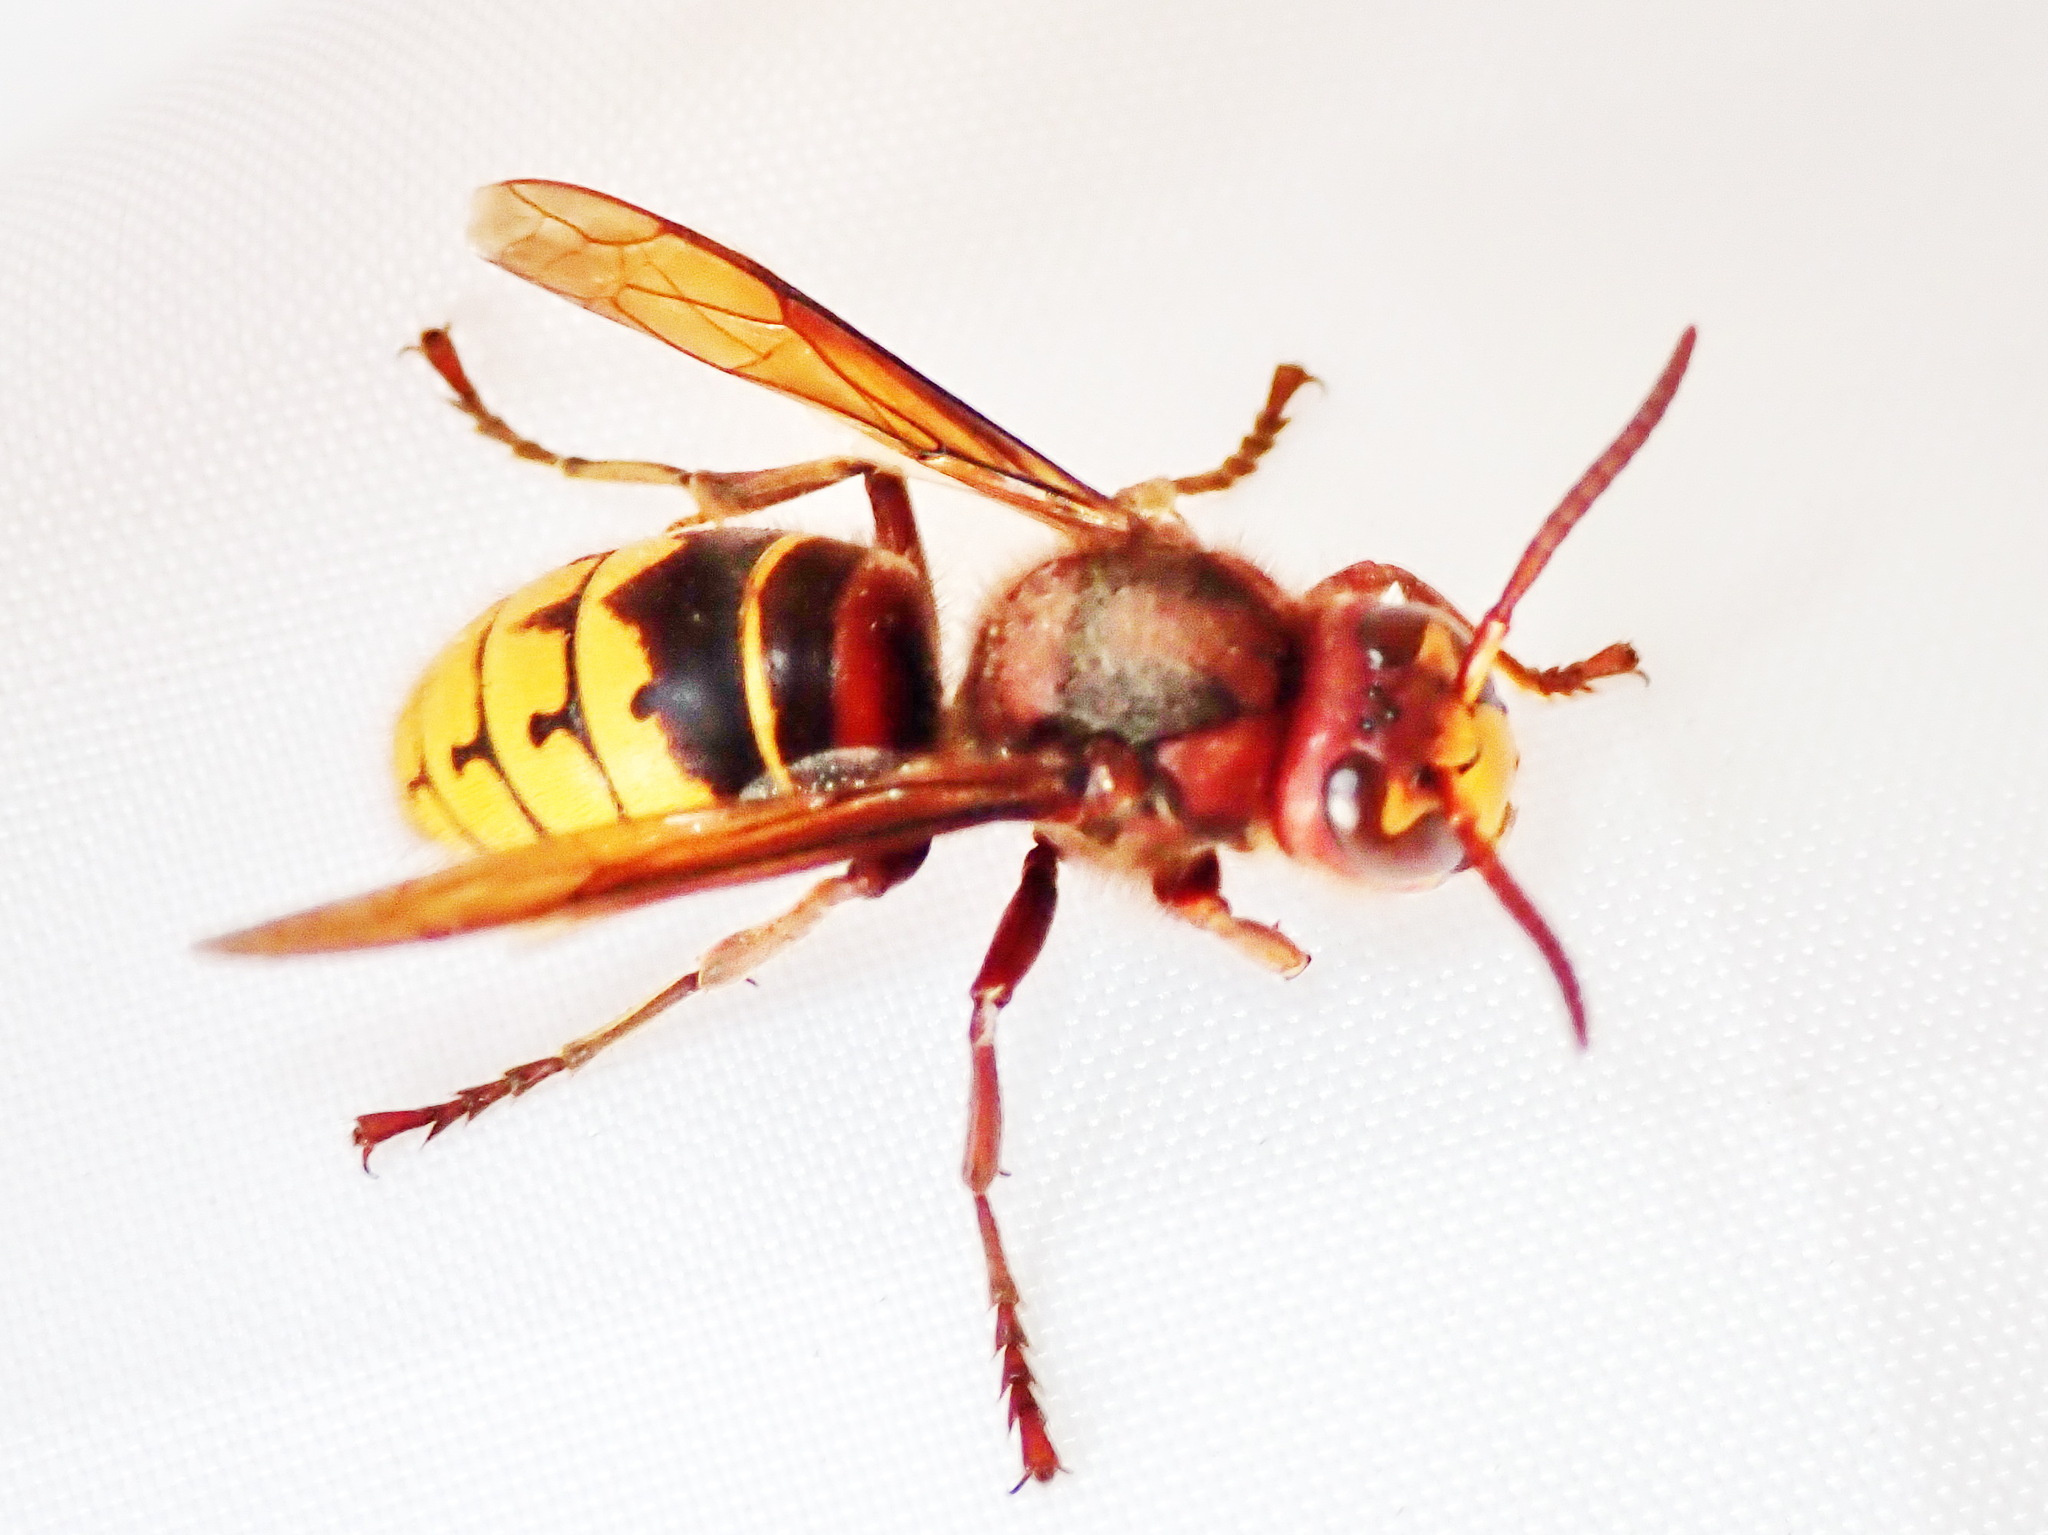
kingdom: Animalia
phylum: Arthropoda
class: Insecta
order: Hymenoptera
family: Vespidae
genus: Vespa
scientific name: Vespa crabro
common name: Hornet
